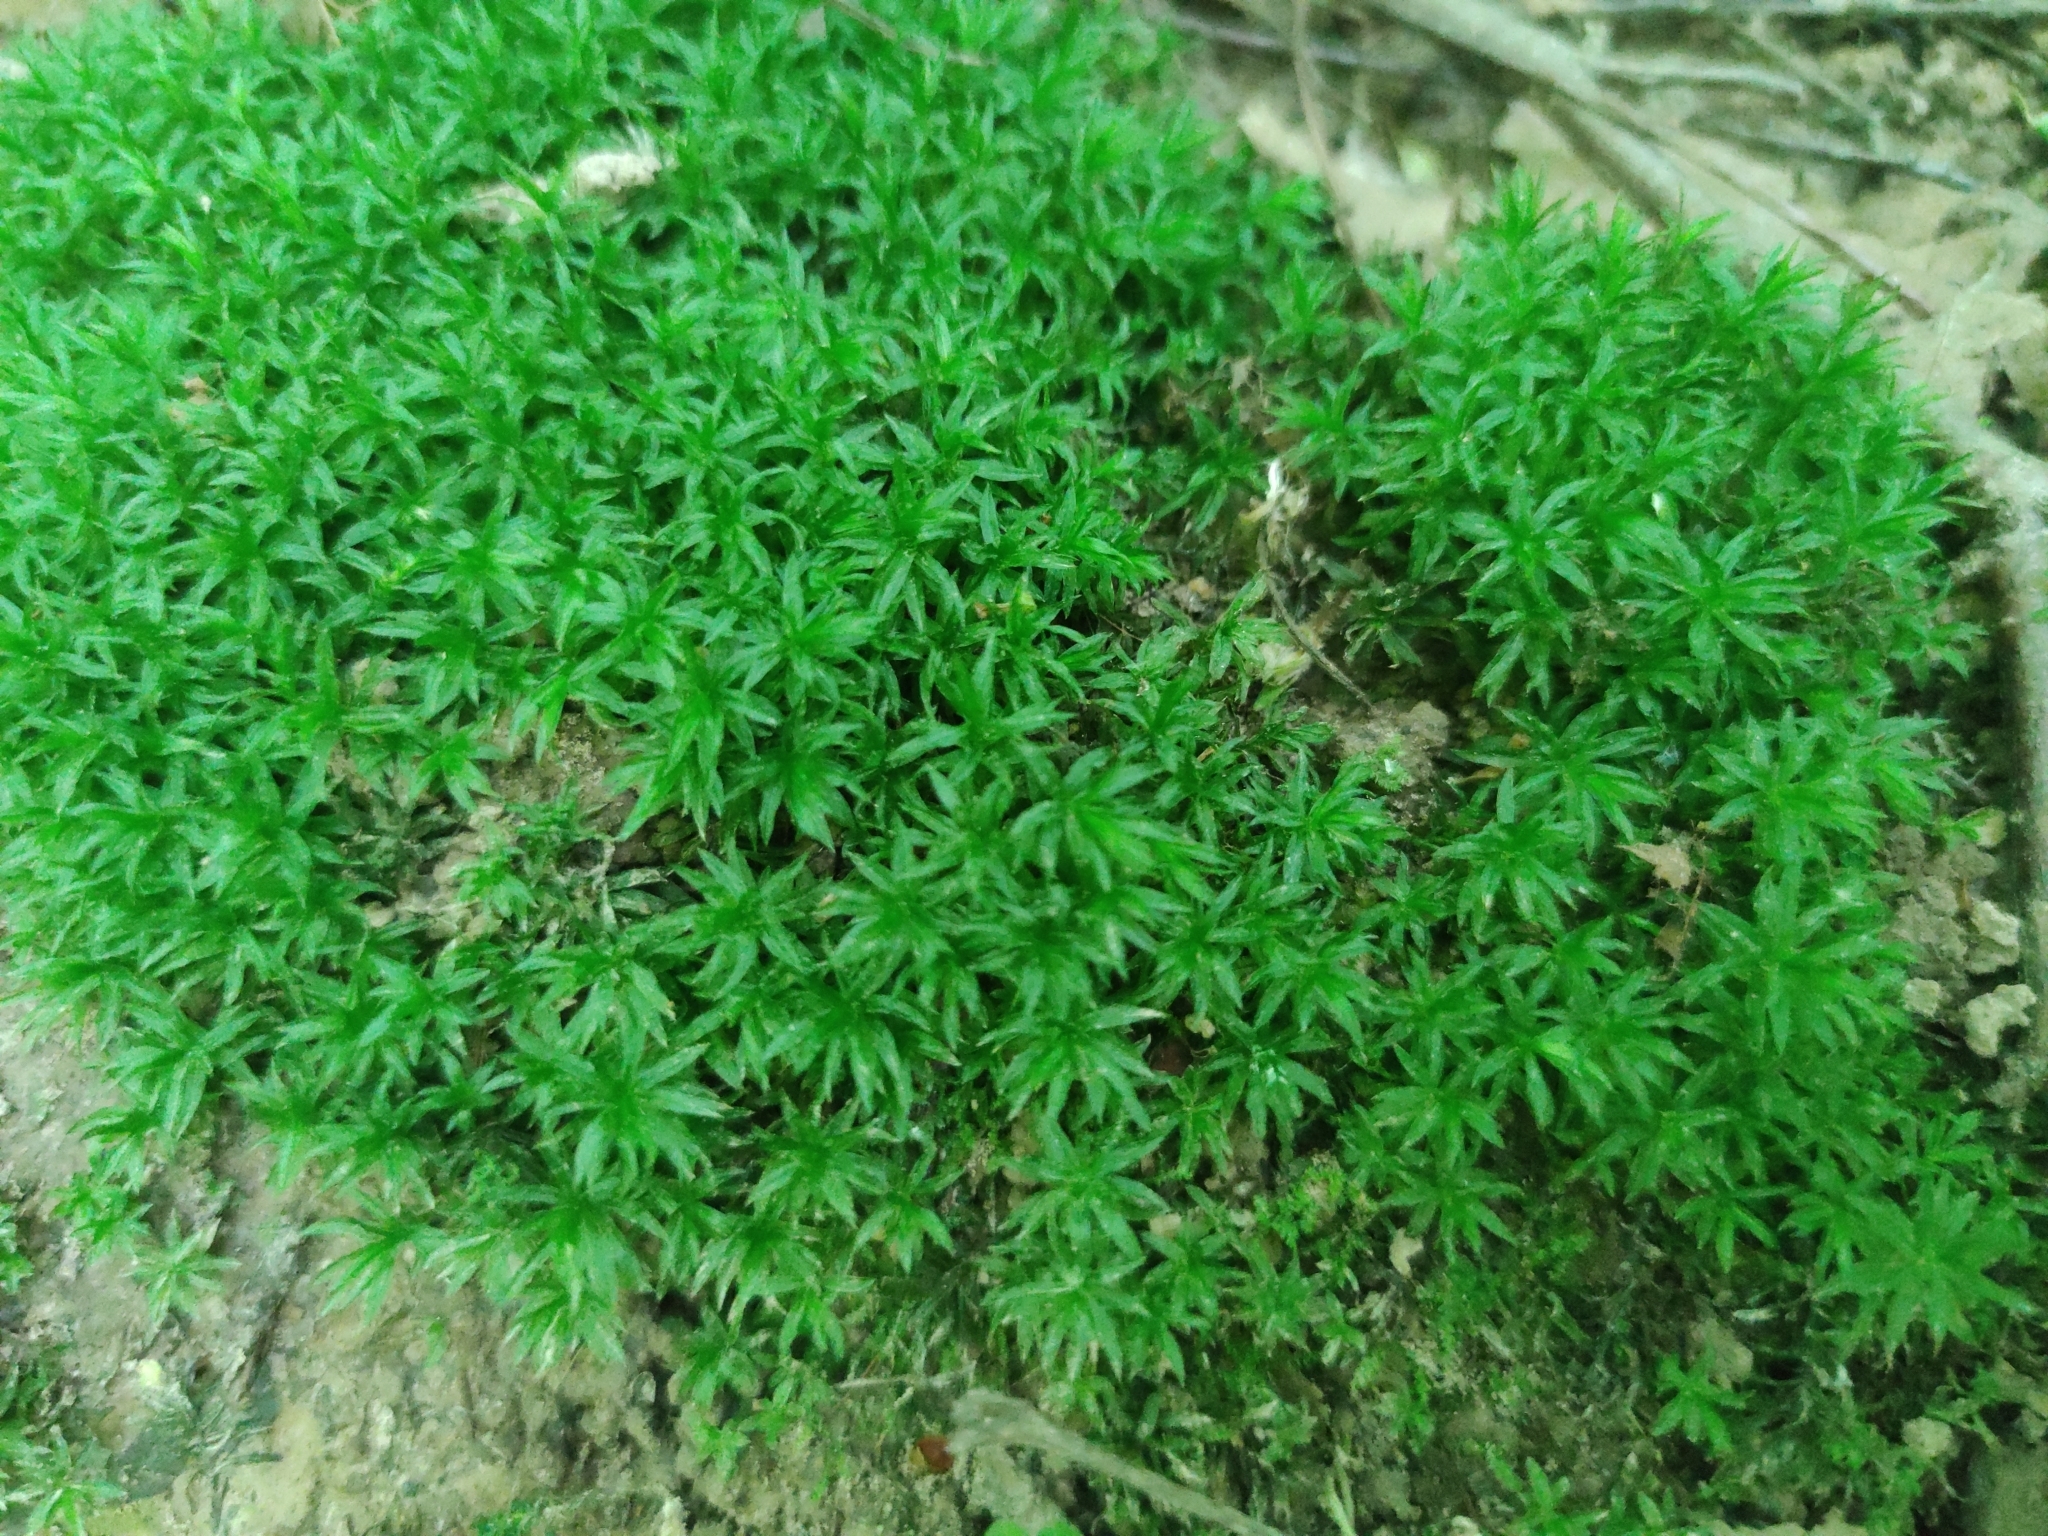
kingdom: Plantae
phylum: Bryophyta
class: Polytrichopsida
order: Polytrichales
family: Polytrichaceae
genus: Atrichum
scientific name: Atrichum undulatum
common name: Common smoothcap
